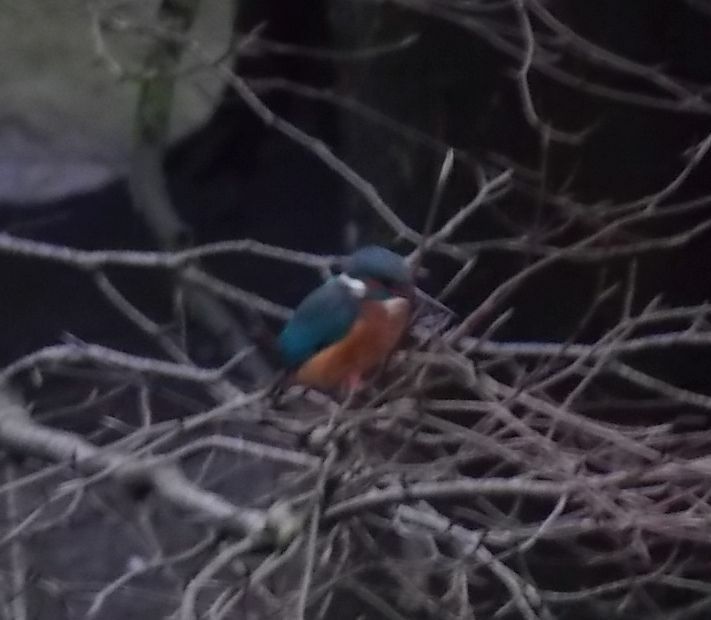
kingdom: Animalia
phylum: Chordata
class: Aves
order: Coraciiformes
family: Alcedinidae
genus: Alcedo
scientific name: Alcedo atthis
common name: Common kingfisher
